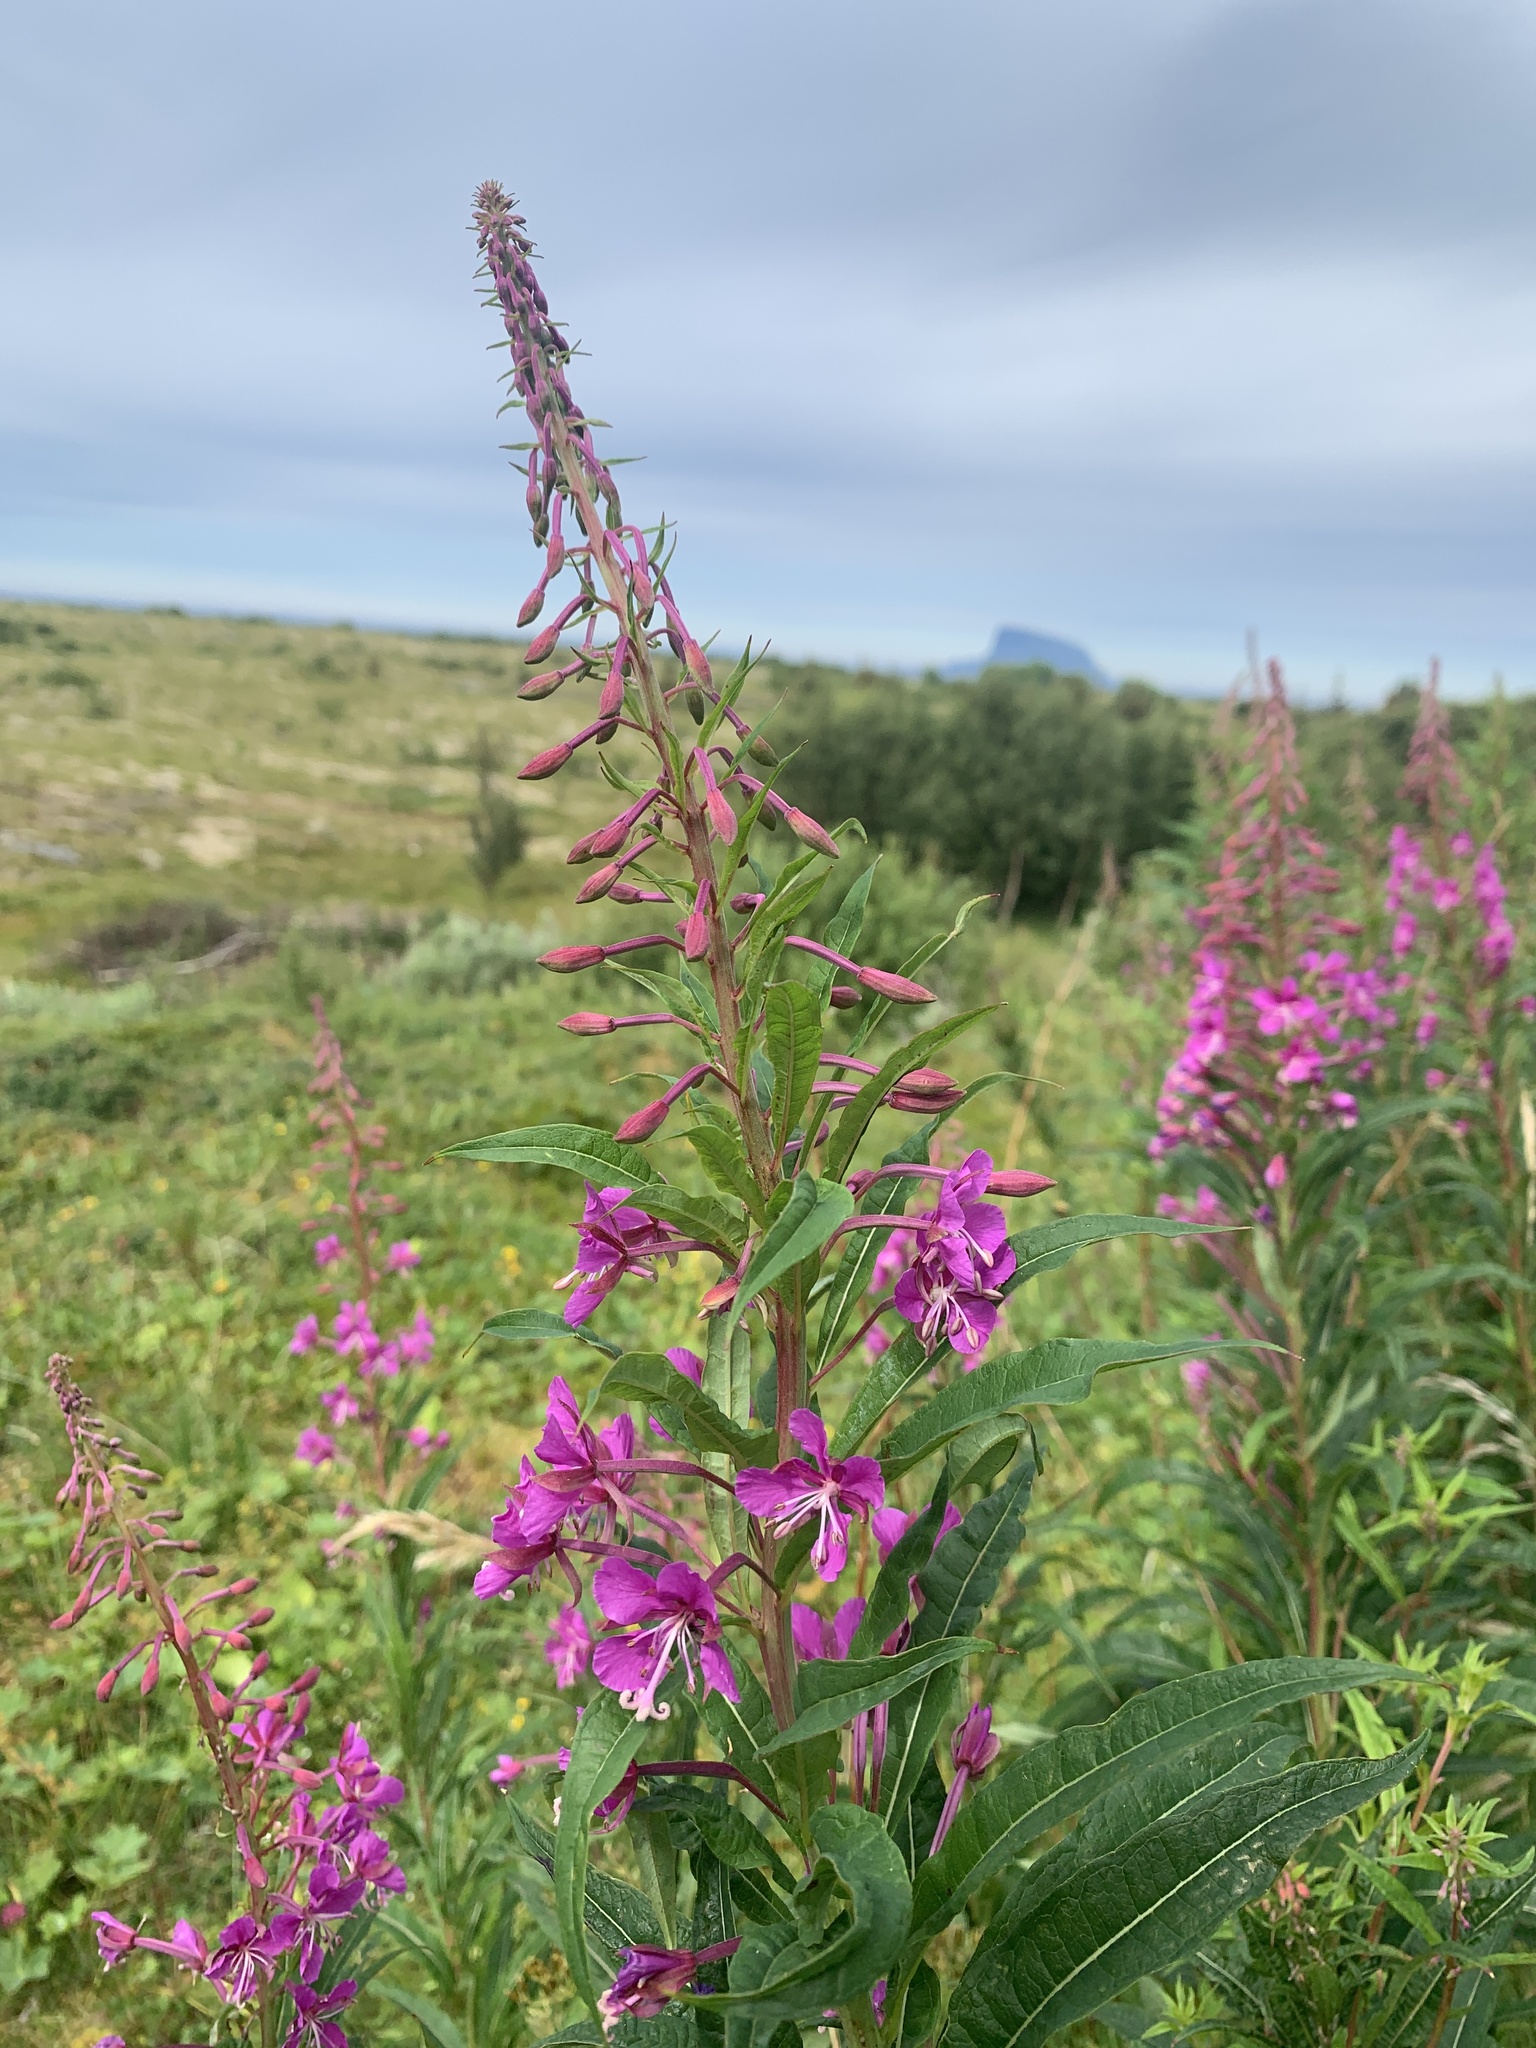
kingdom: Plantae
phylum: Tracheophyta
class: Magnoliopsida
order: Myrtales
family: Onagraceae
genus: Chamaenerion
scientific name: Chamaenerion angustifolium
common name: Fireweed
